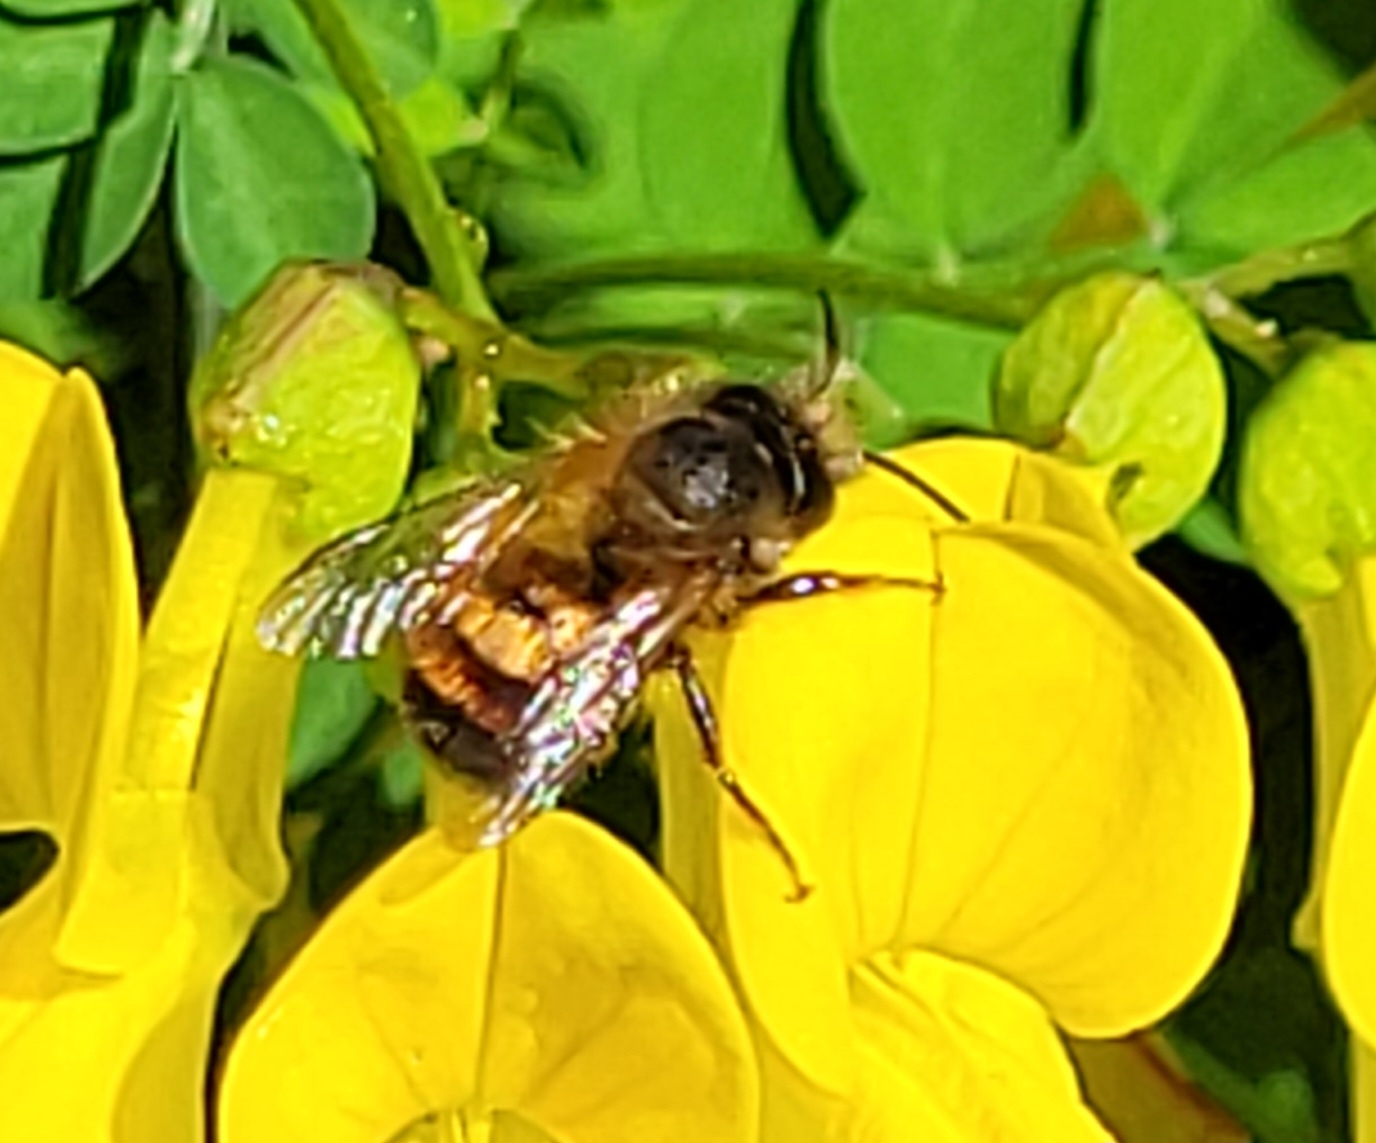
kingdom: Animalia
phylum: Arthropoda
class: Insecta
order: Hymenoptera
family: Megachilidae
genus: Osmia
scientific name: Osmia bicornis
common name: Red mason bee
